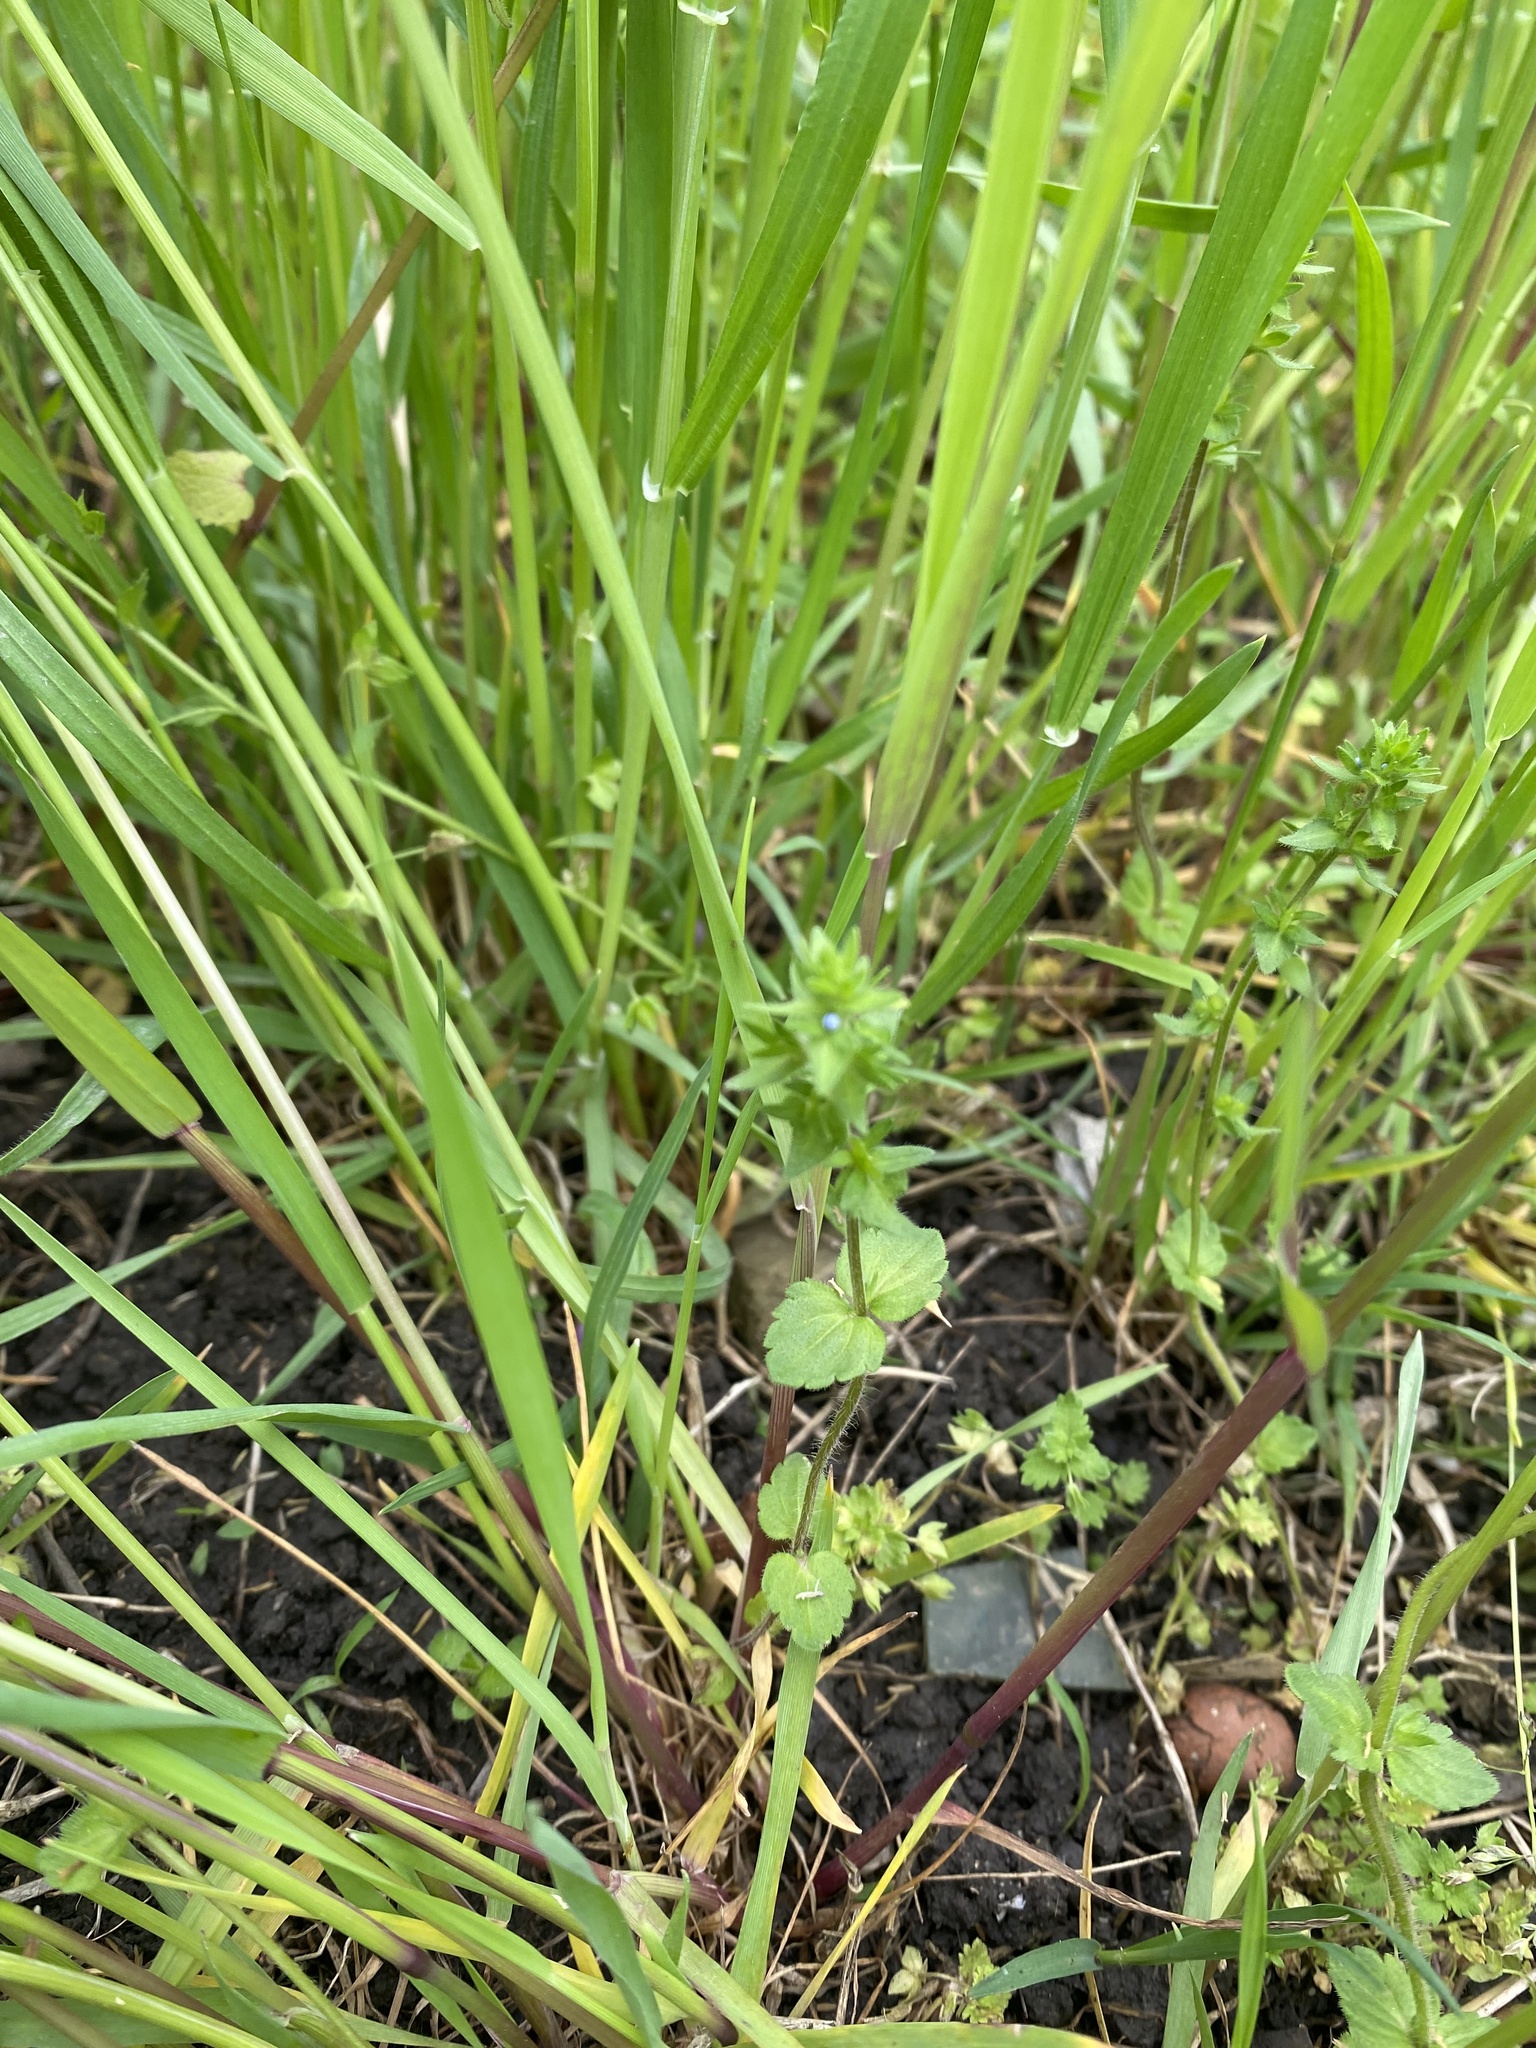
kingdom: Plantae
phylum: Tracheophyta
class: Magnoliopsida
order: Lamiales
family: Plantaginaceae
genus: Veronica
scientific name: Veronica arvensis
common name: Corn speedwell
